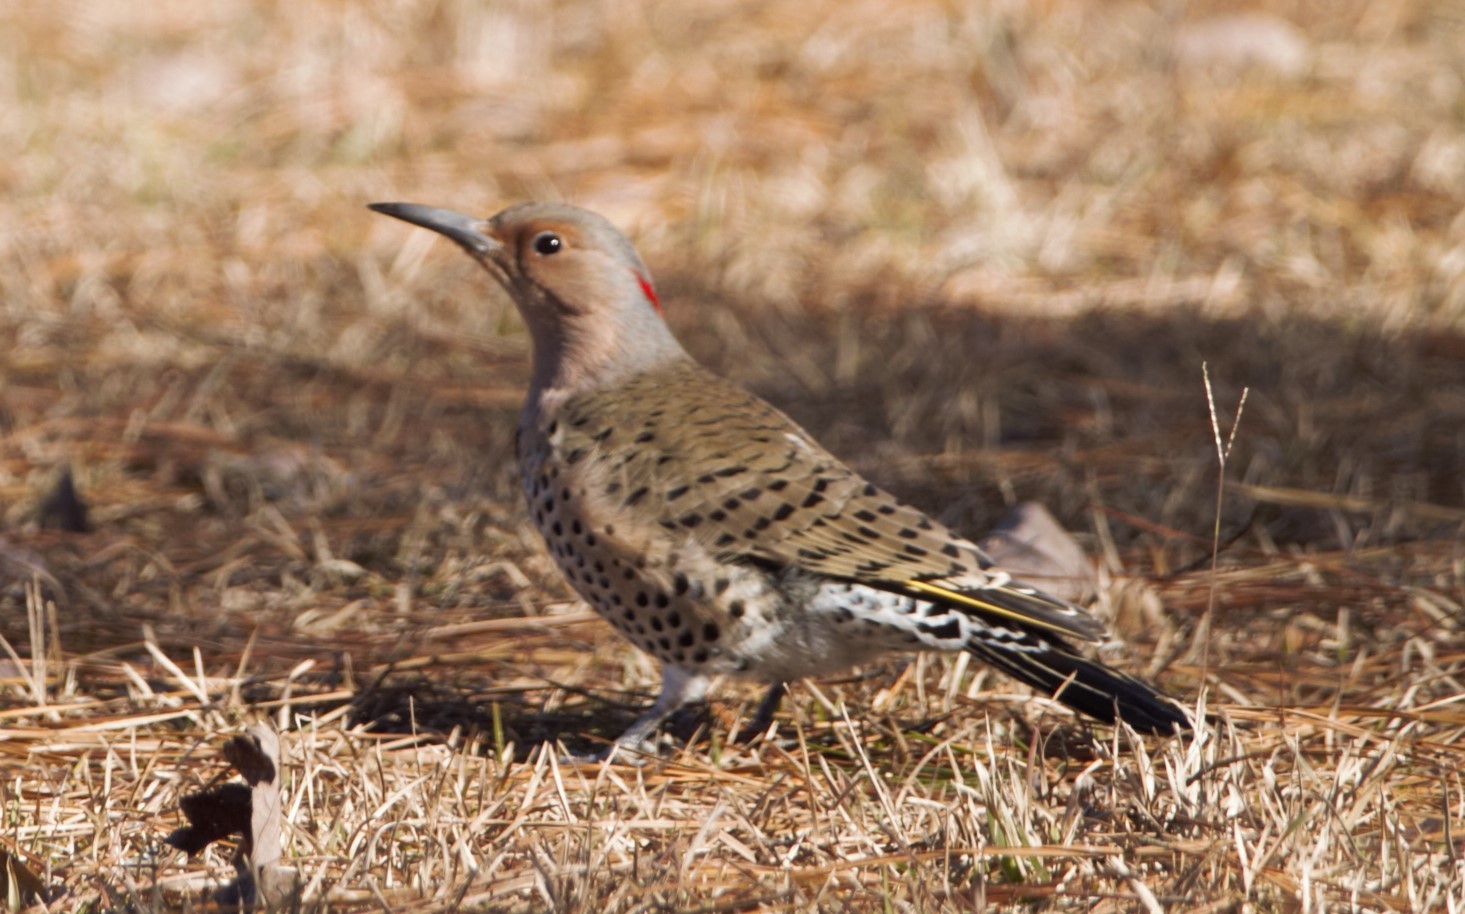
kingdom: Animalia
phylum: Chordata
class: Aves
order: Piciformes
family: Picidae
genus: Colaptes
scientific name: Colaptes auratus
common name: Northern flicker
